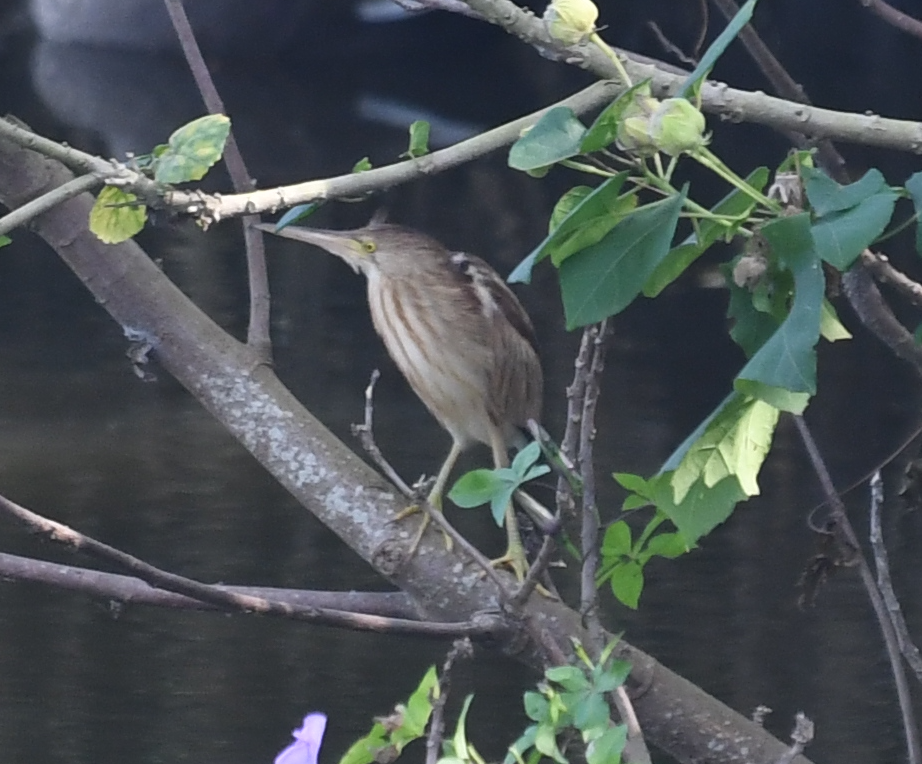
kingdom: Animalia
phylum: Chordata
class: Aves
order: Pelecaniformes
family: Ardeidae
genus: Ixobrychus
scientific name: Ixobrychus sinensis
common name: Yellow bittern
